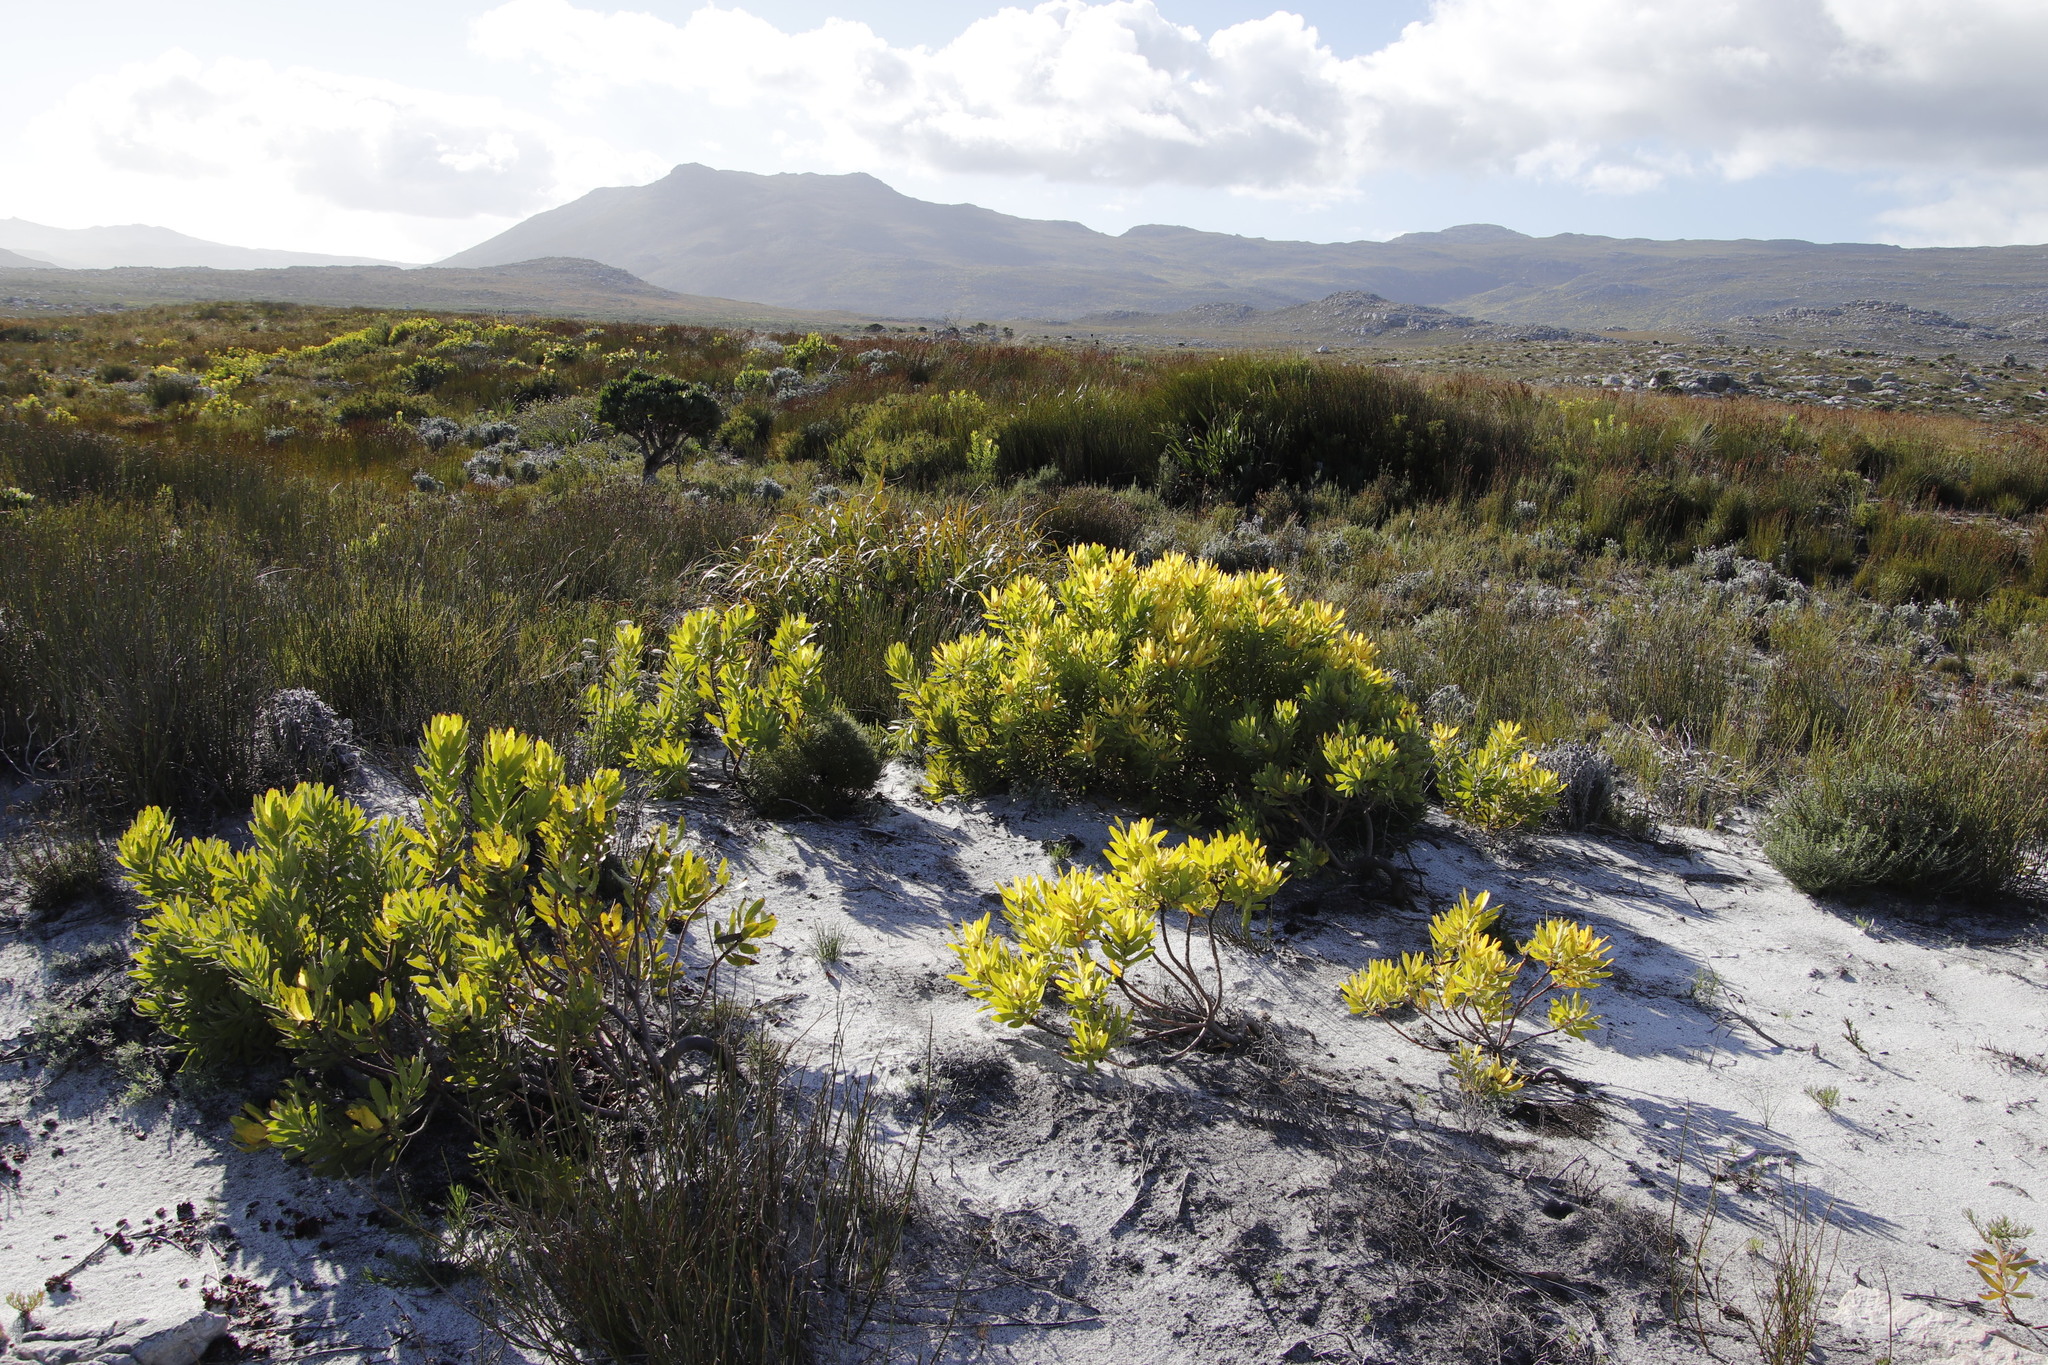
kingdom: Plantae
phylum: Tracheophyta
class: Magnoliopsida
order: Proteales
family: Proteaceae
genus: Leucadendron
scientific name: Leucadendron laureolum
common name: Golden sunshinebush
